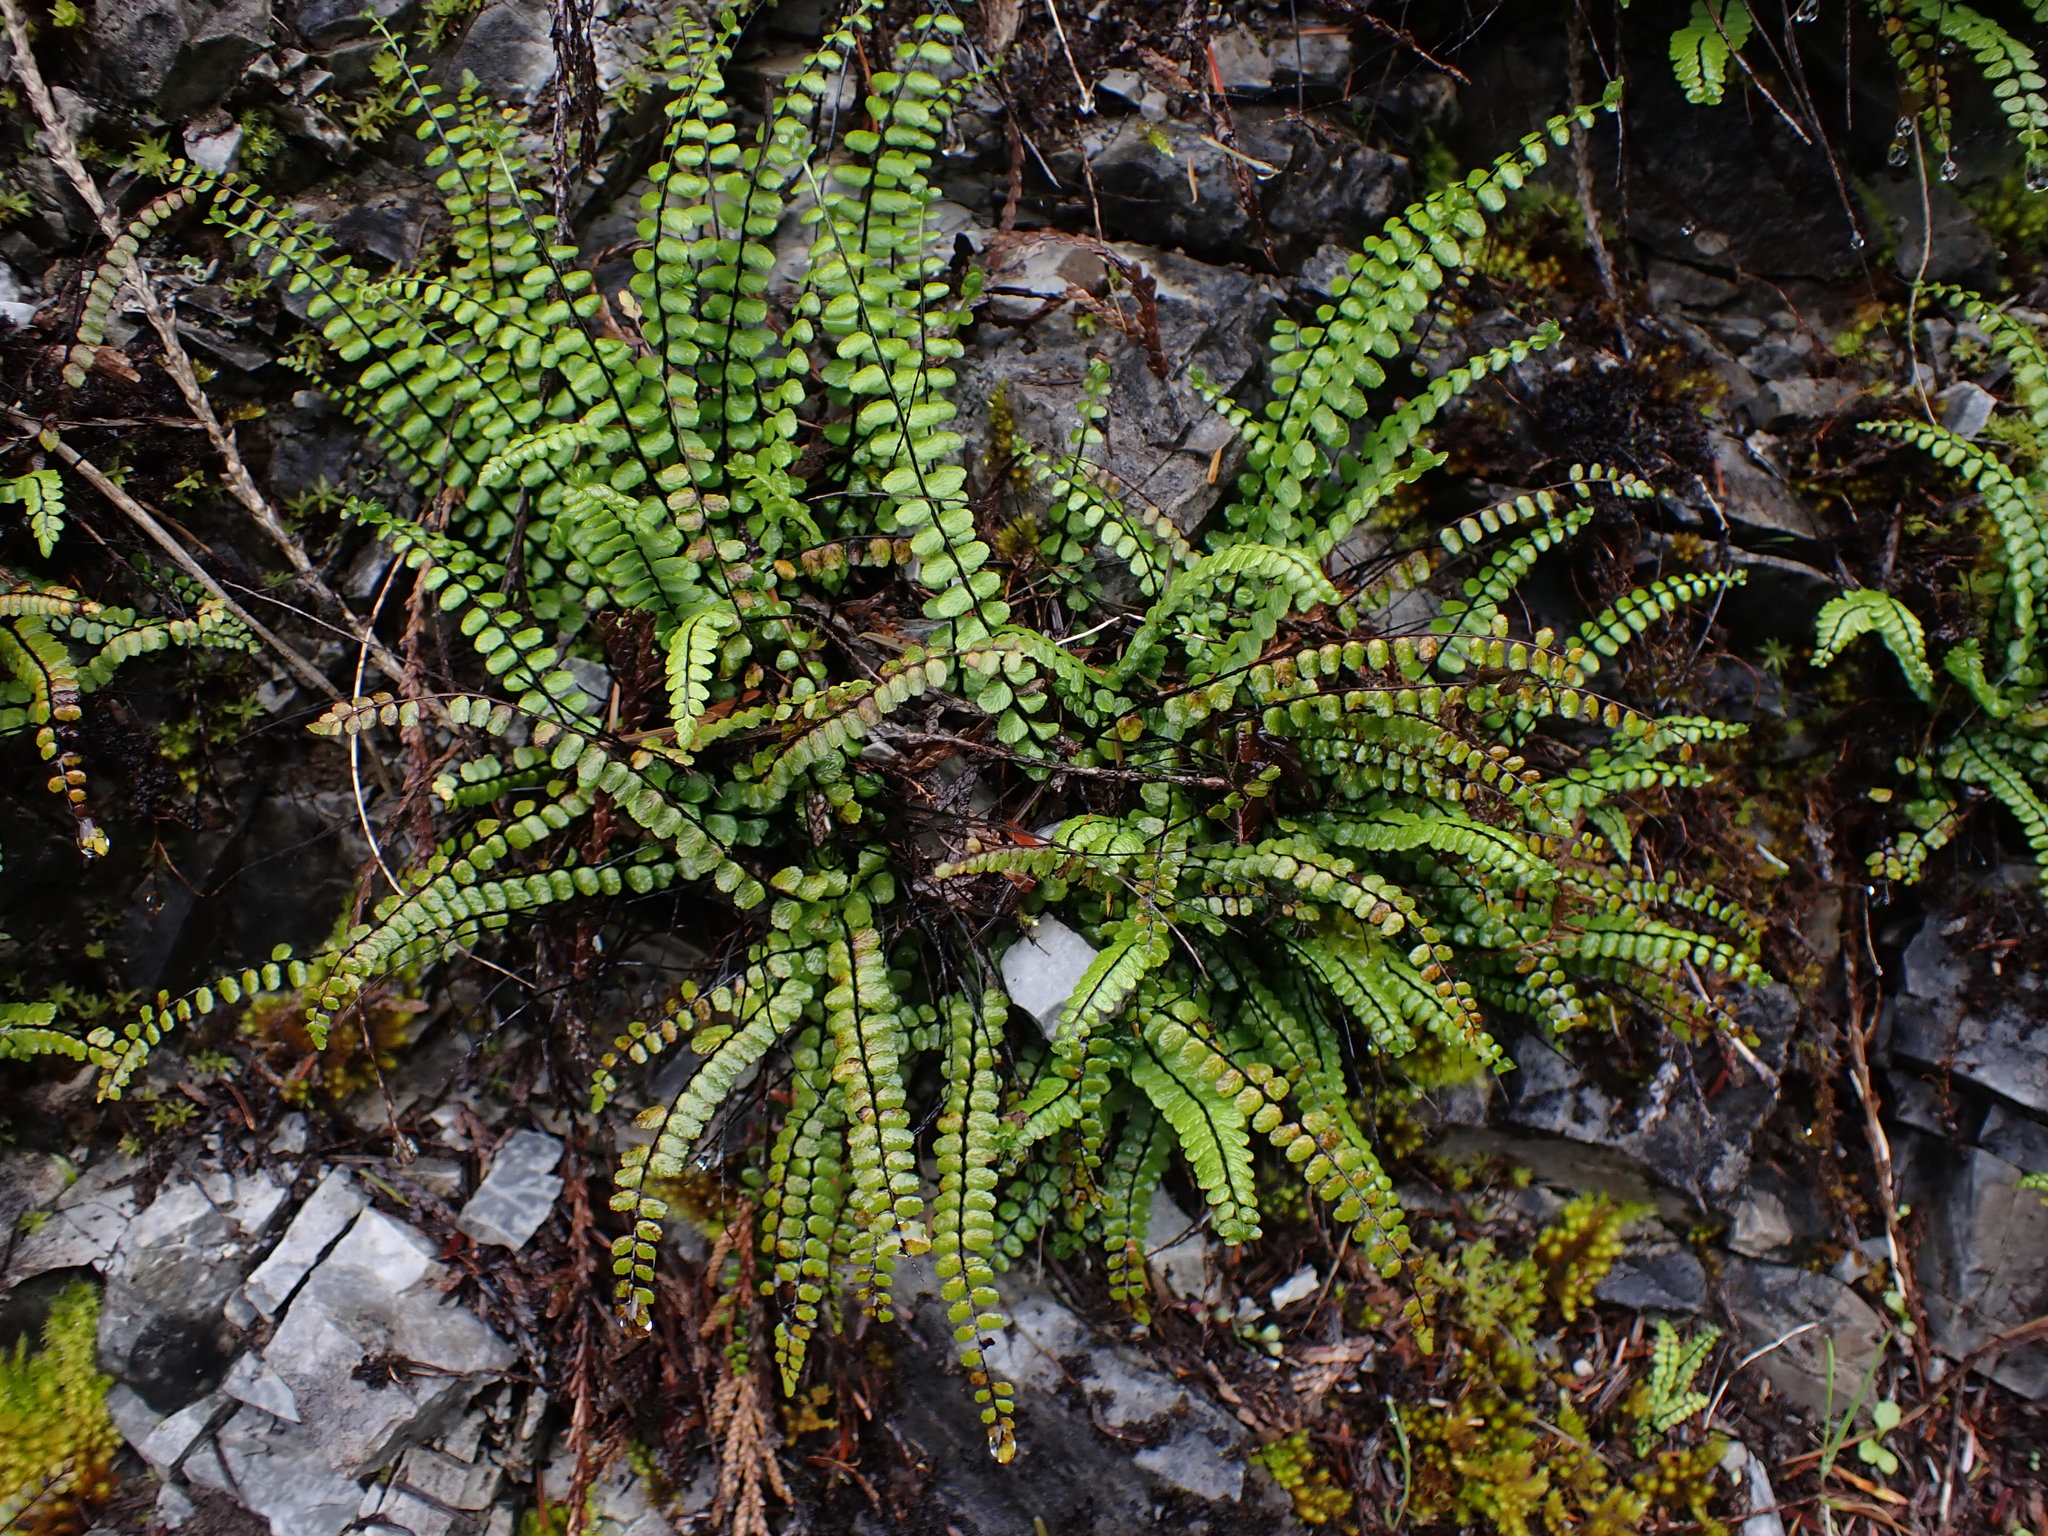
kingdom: Plantae
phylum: Tracheophyta
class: Polypodiopsida
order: Polypodiales
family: Aspleniaceae
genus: Asplenium
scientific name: Asplenium trichomanes
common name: Maidenhair spleenwort
